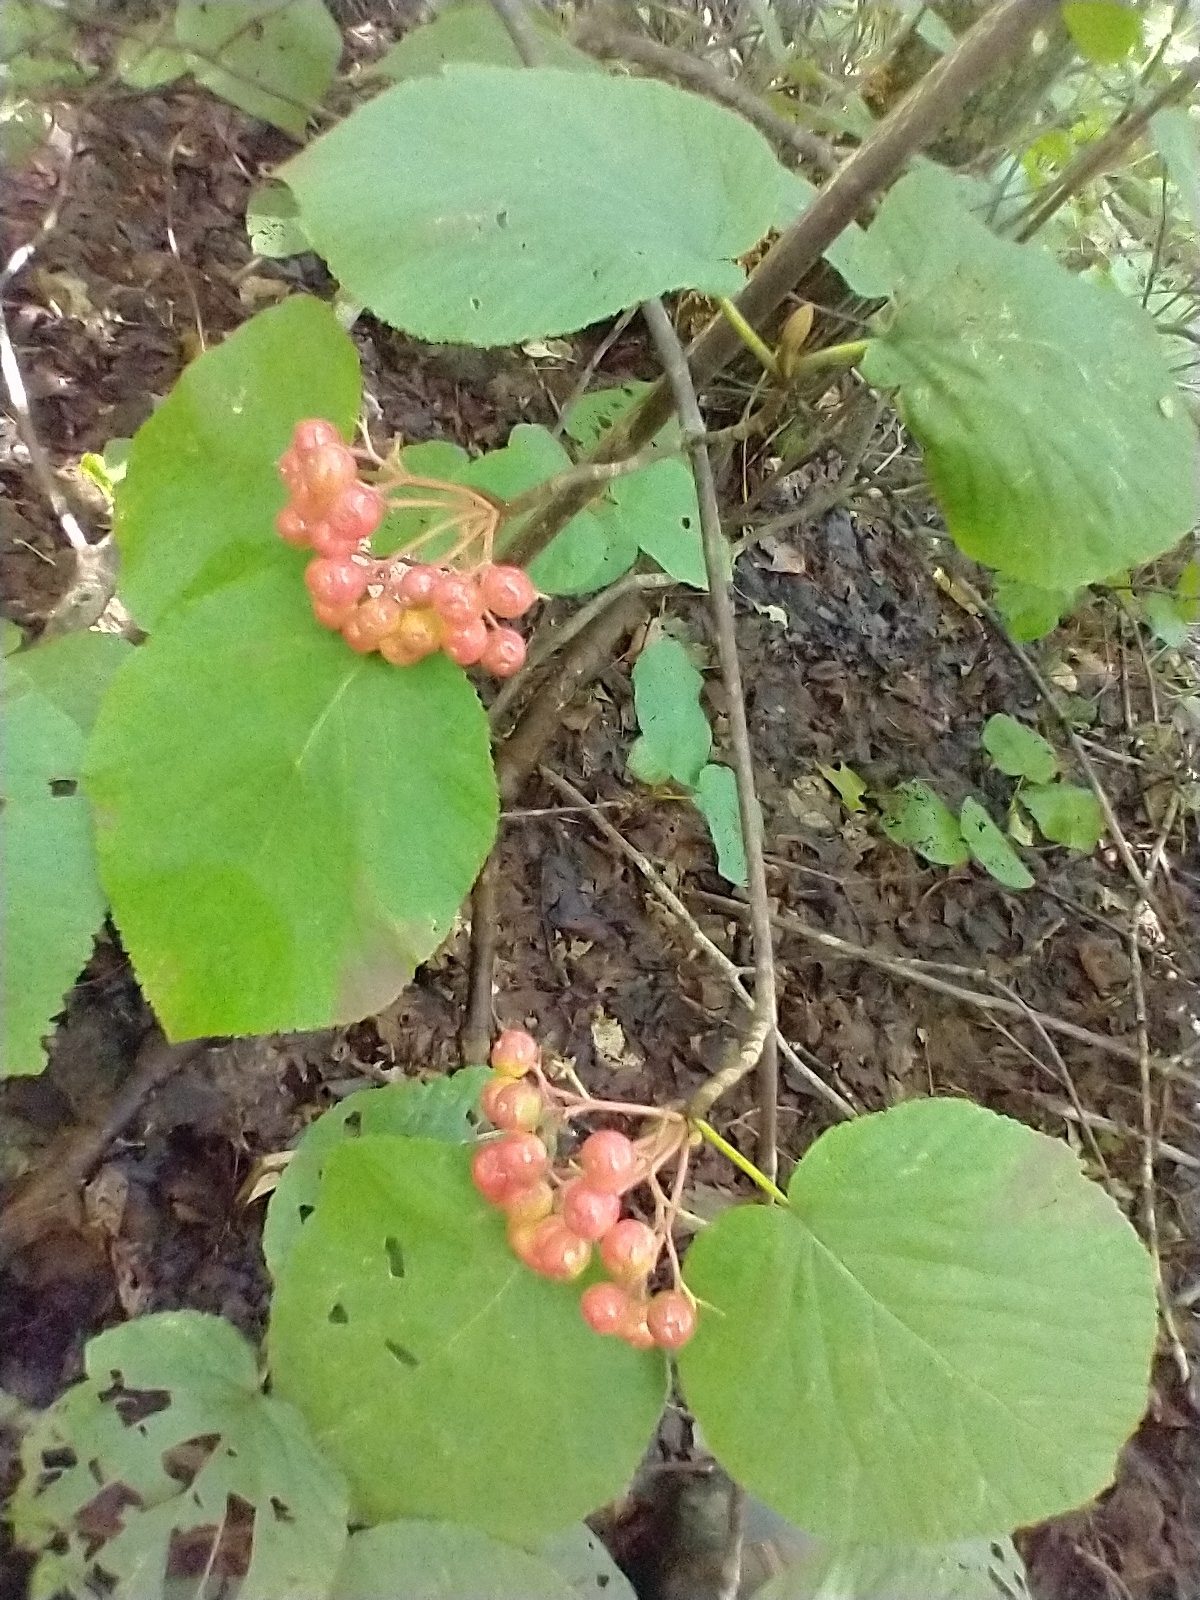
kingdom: Plantae
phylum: Tracheophyta
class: Magnoliopsida
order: Dipsacales
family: Viburnaceae
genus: Viburnum
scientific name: Viburnum lantanoides
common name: Hobblebush
